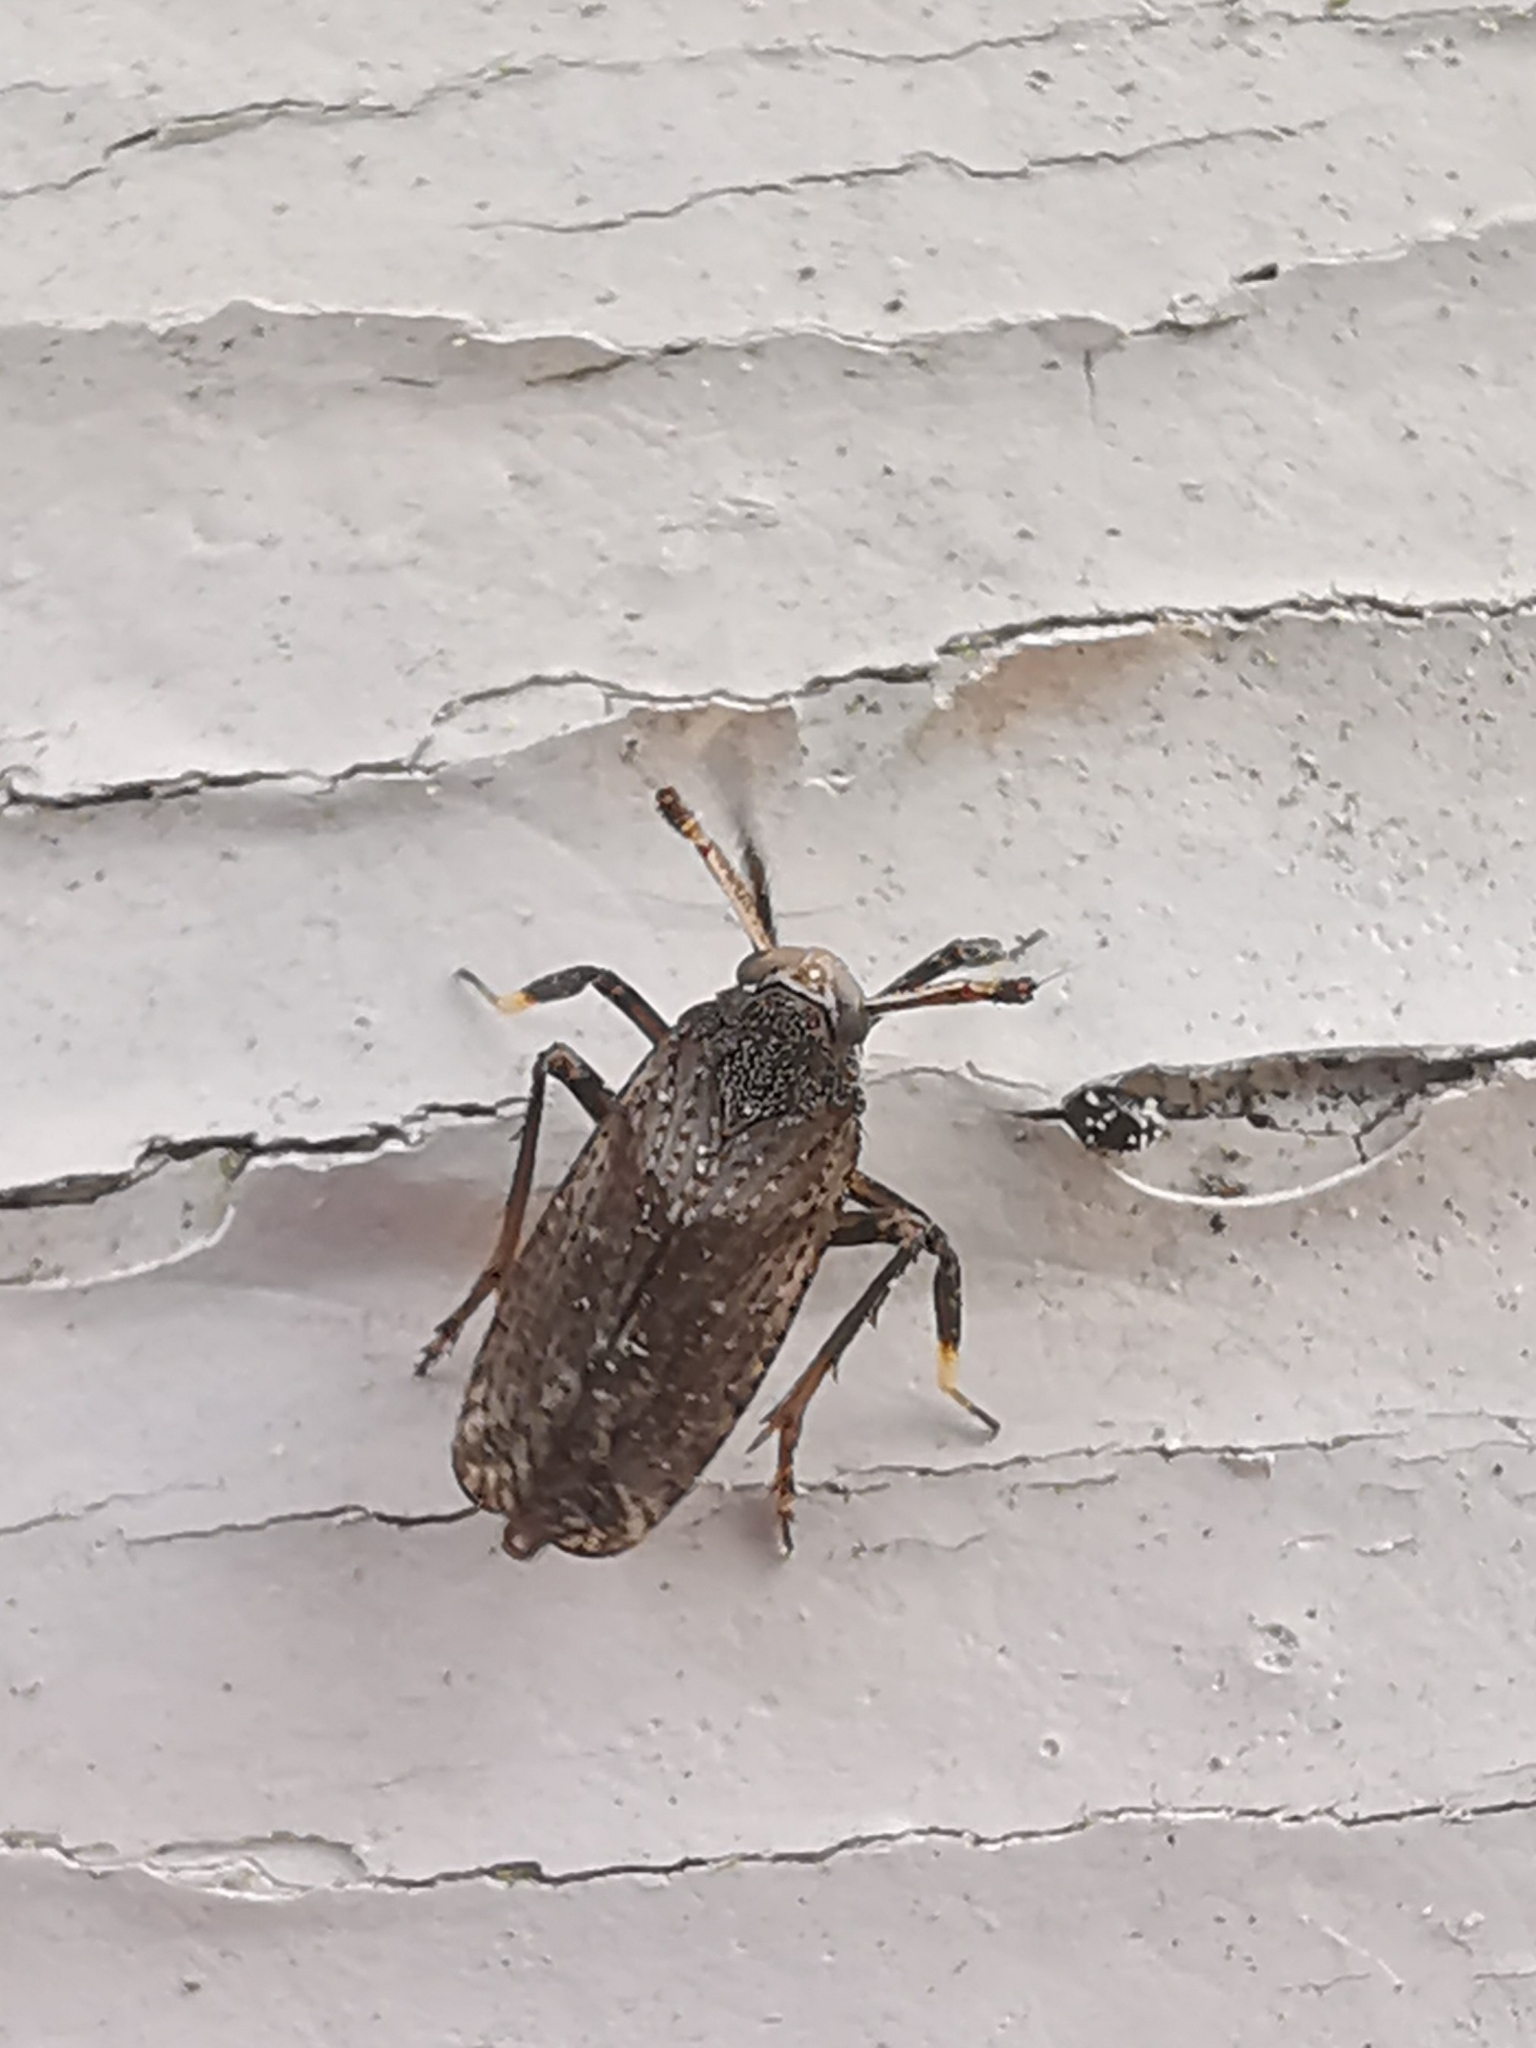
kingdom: Animalia
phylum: Arthropoda
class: Insecta
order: Hemiptera
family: Delphacidae
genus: Asiraca
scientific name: Asiraca clavicornis
